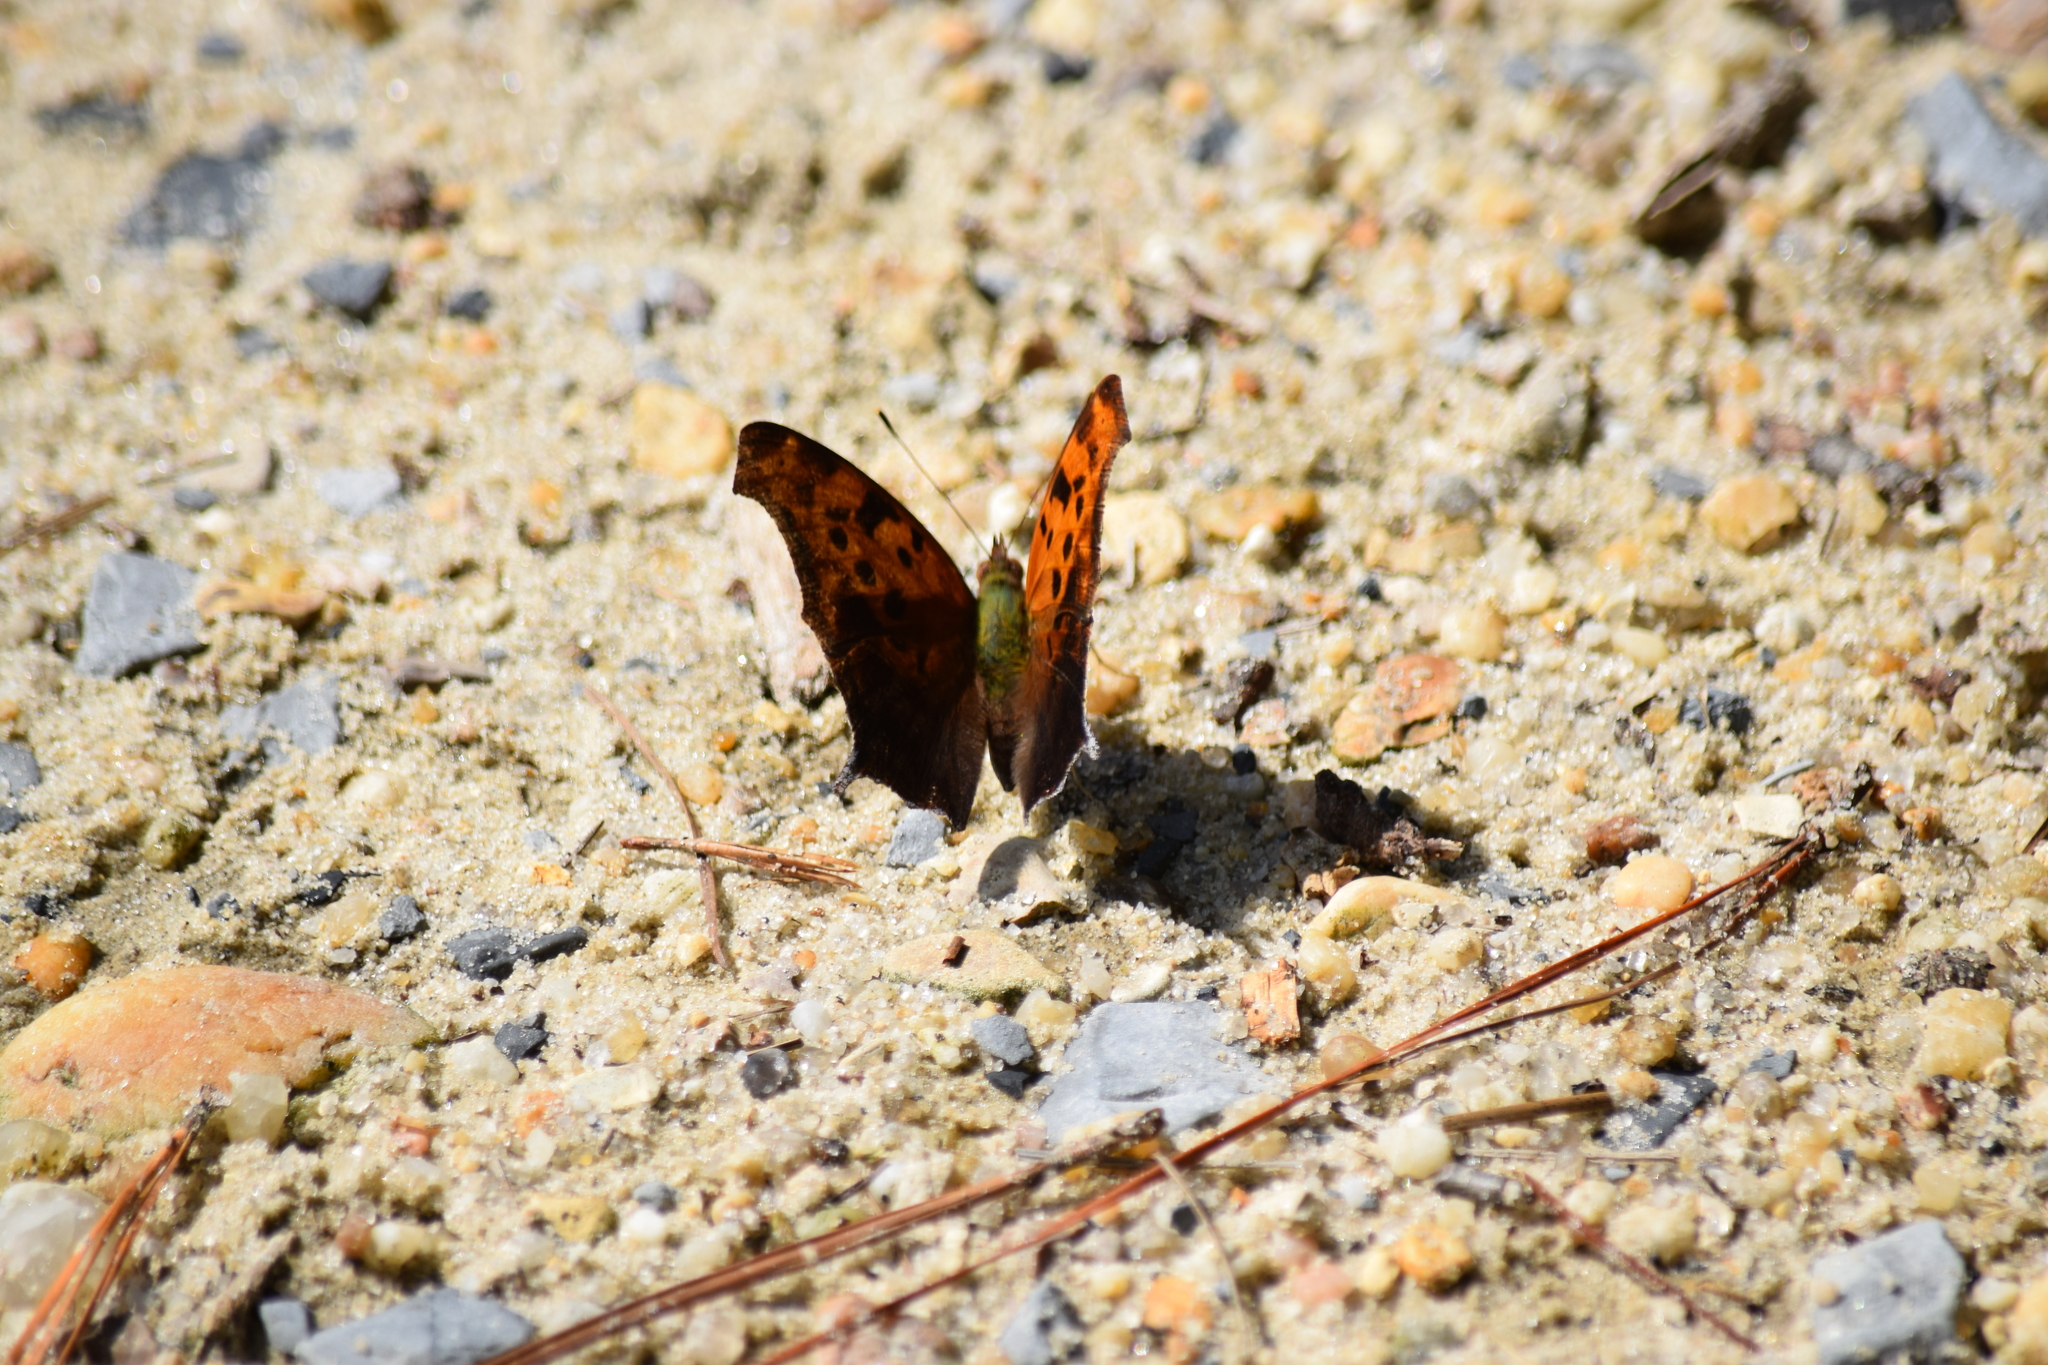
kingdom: Animalia
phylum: Arthropoda
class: Insecta
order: Lepidoptera
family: Nymphalidae
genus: Polygonia
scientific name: Polygonia interrogationis
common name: Question mark
